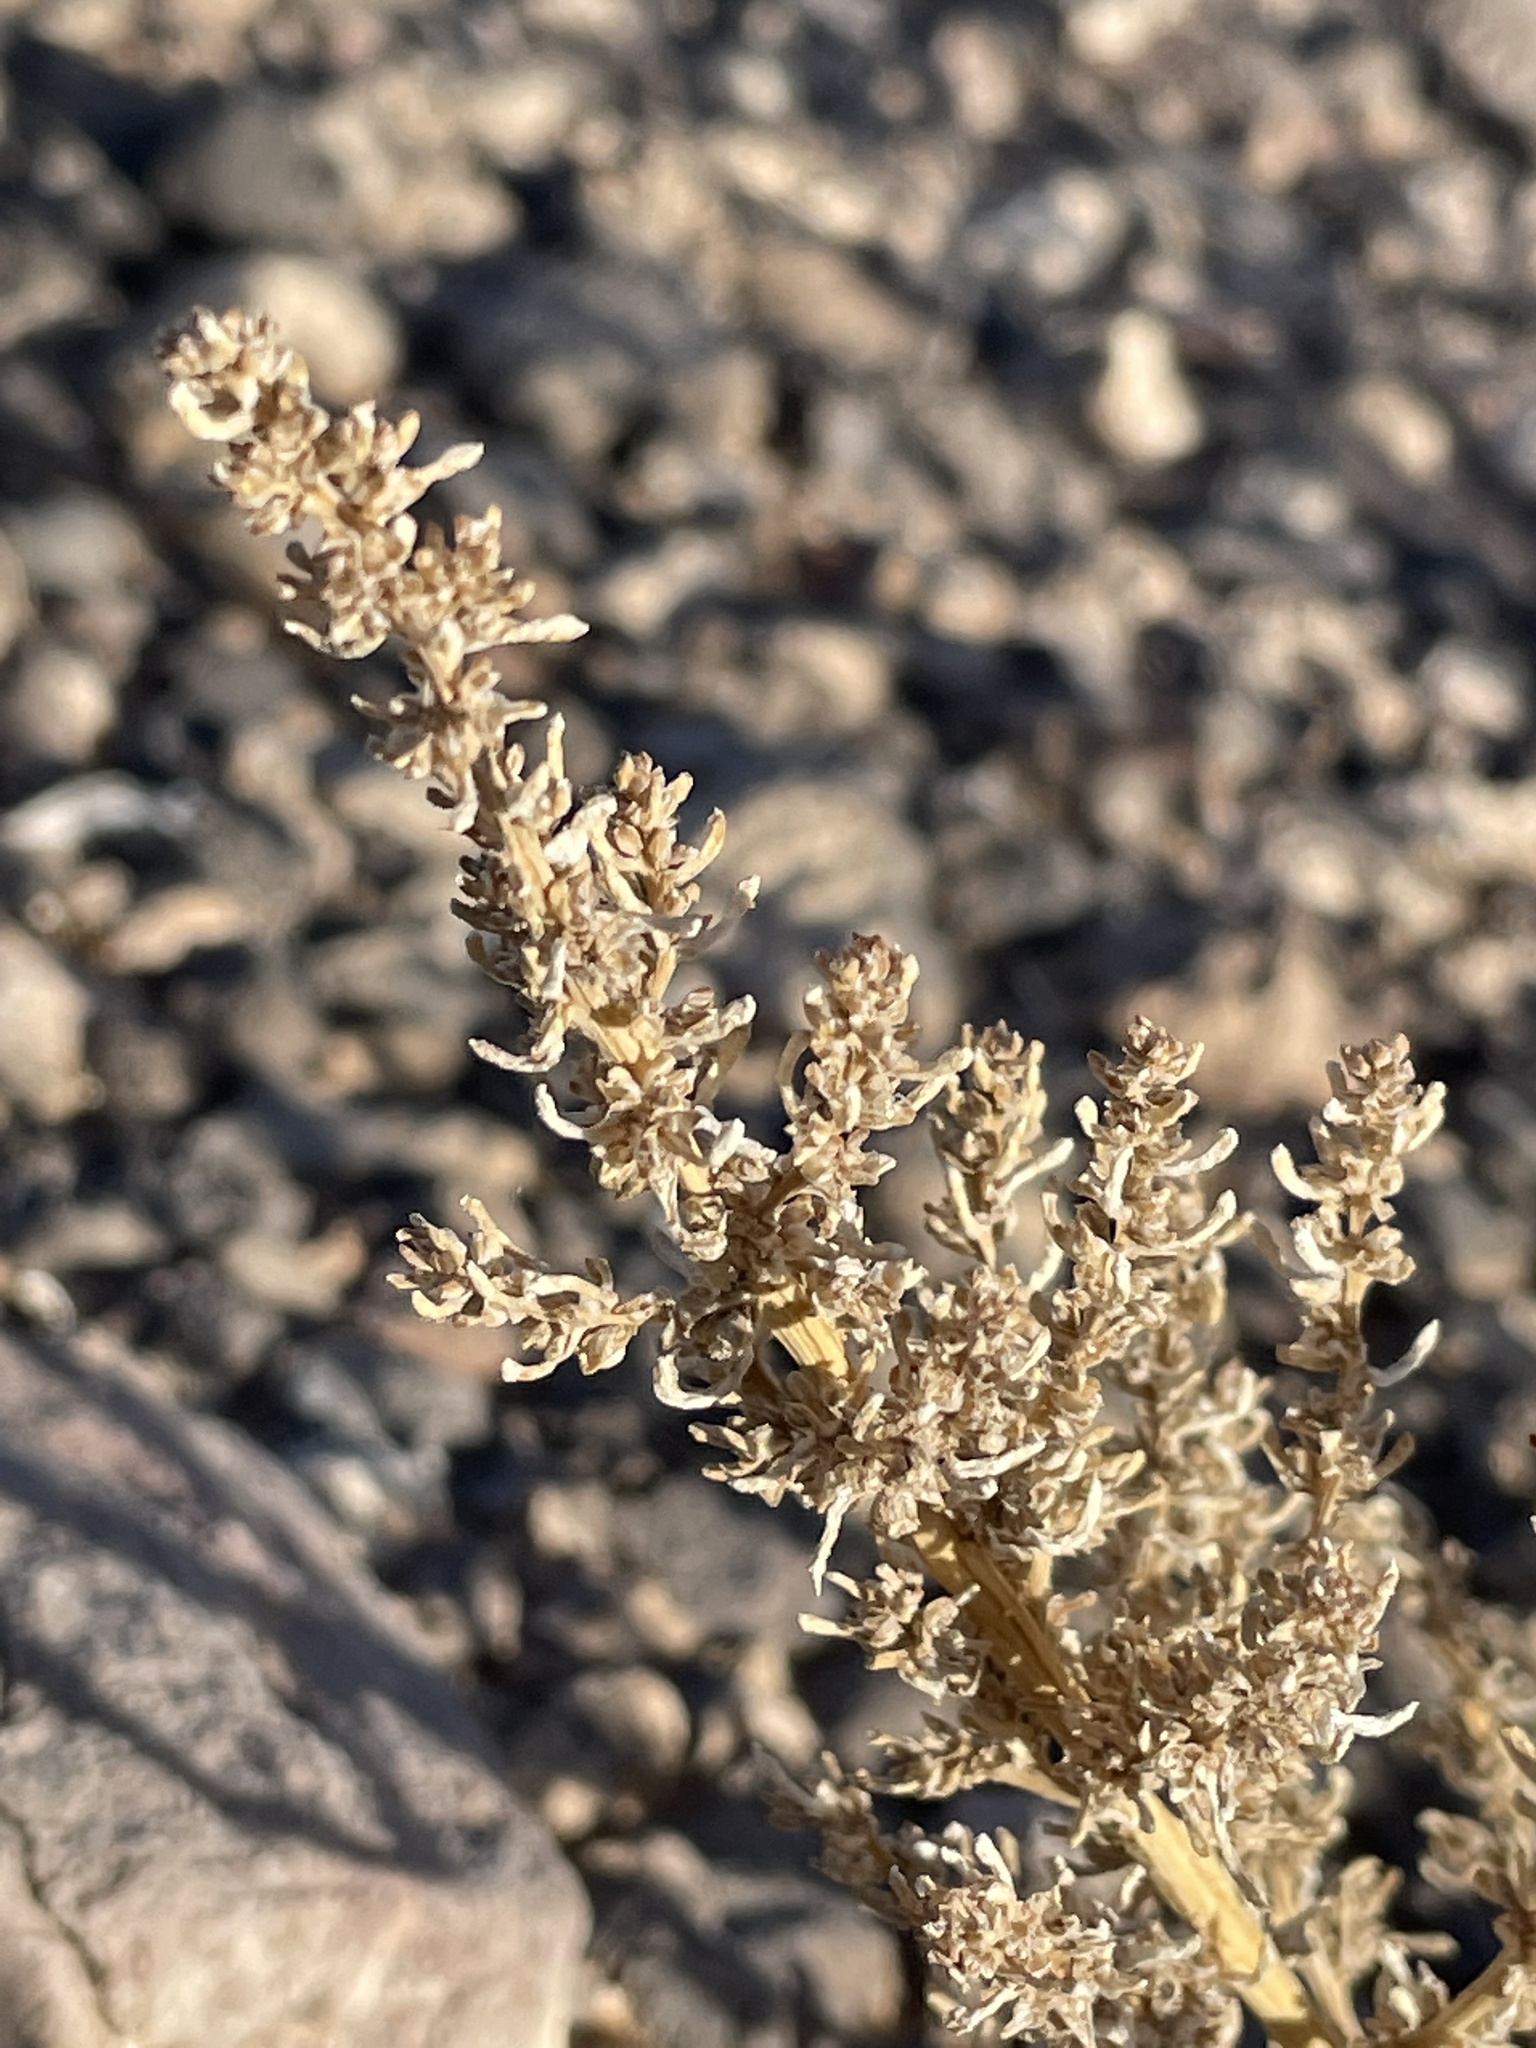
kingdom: Plantae
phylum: Tracheophyta
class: Magnoliopsida
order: Caryophyllales
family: Amaranthaceae
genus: Halogeton
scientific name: Halogeton glomeratus
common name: Saltlover
